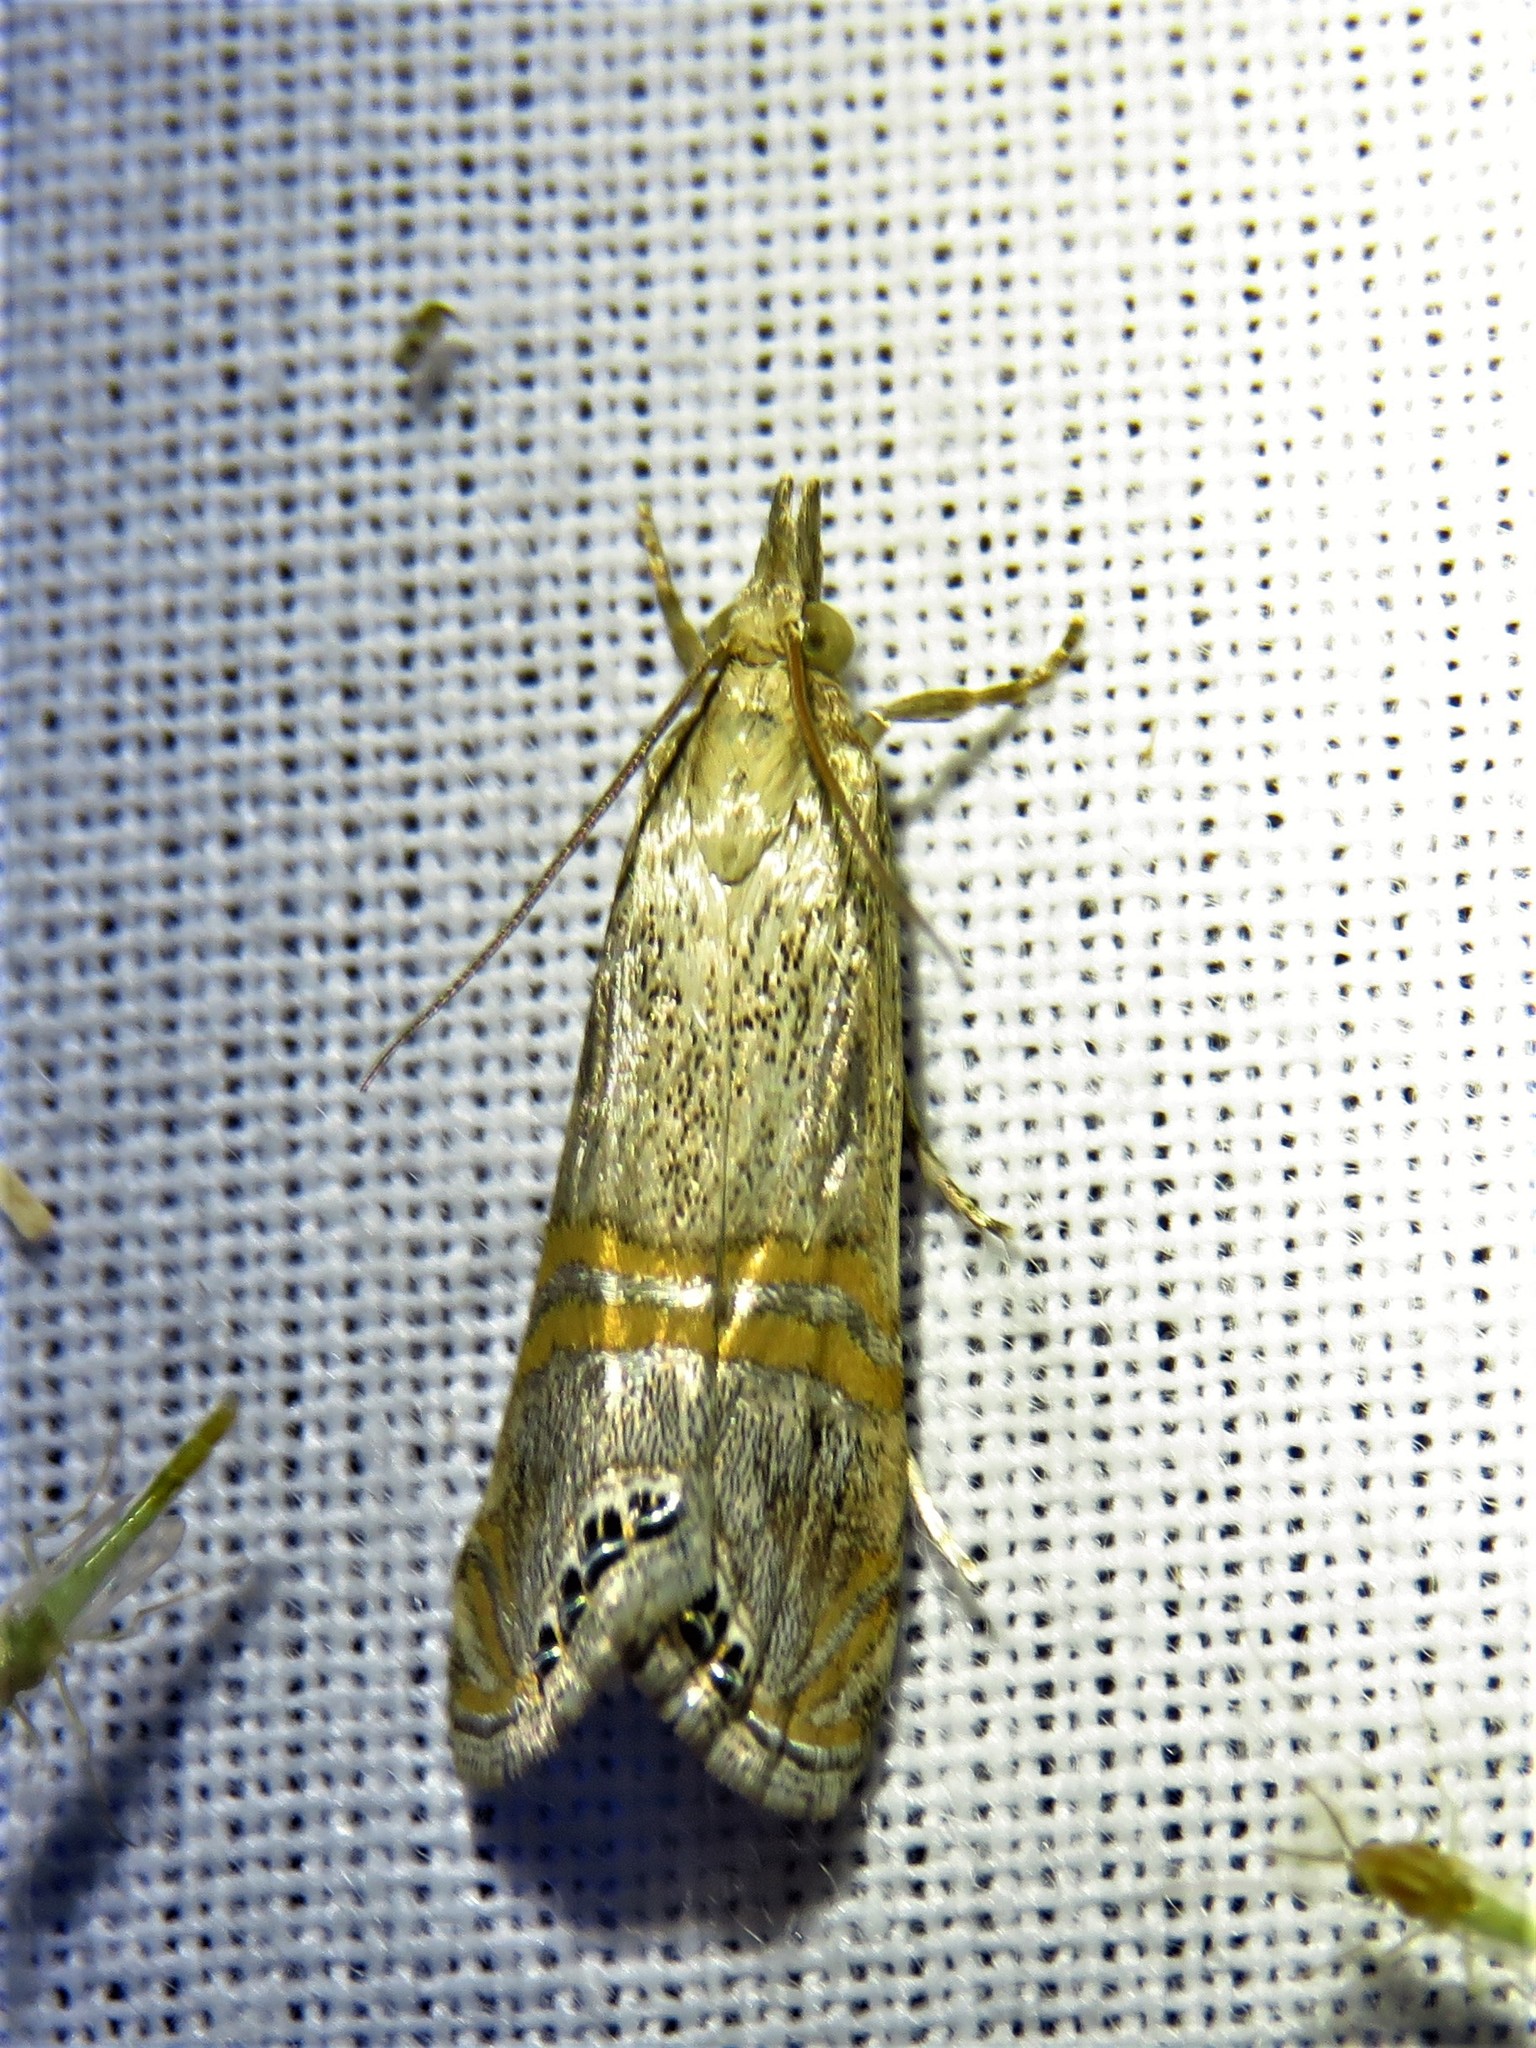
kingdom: Animalia
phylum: Arthropoda
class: Insecta
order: Lepidoptera
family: Crambidae
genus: Euchromius
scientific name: Euchromius ocellea
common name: Necklace veneer moth
